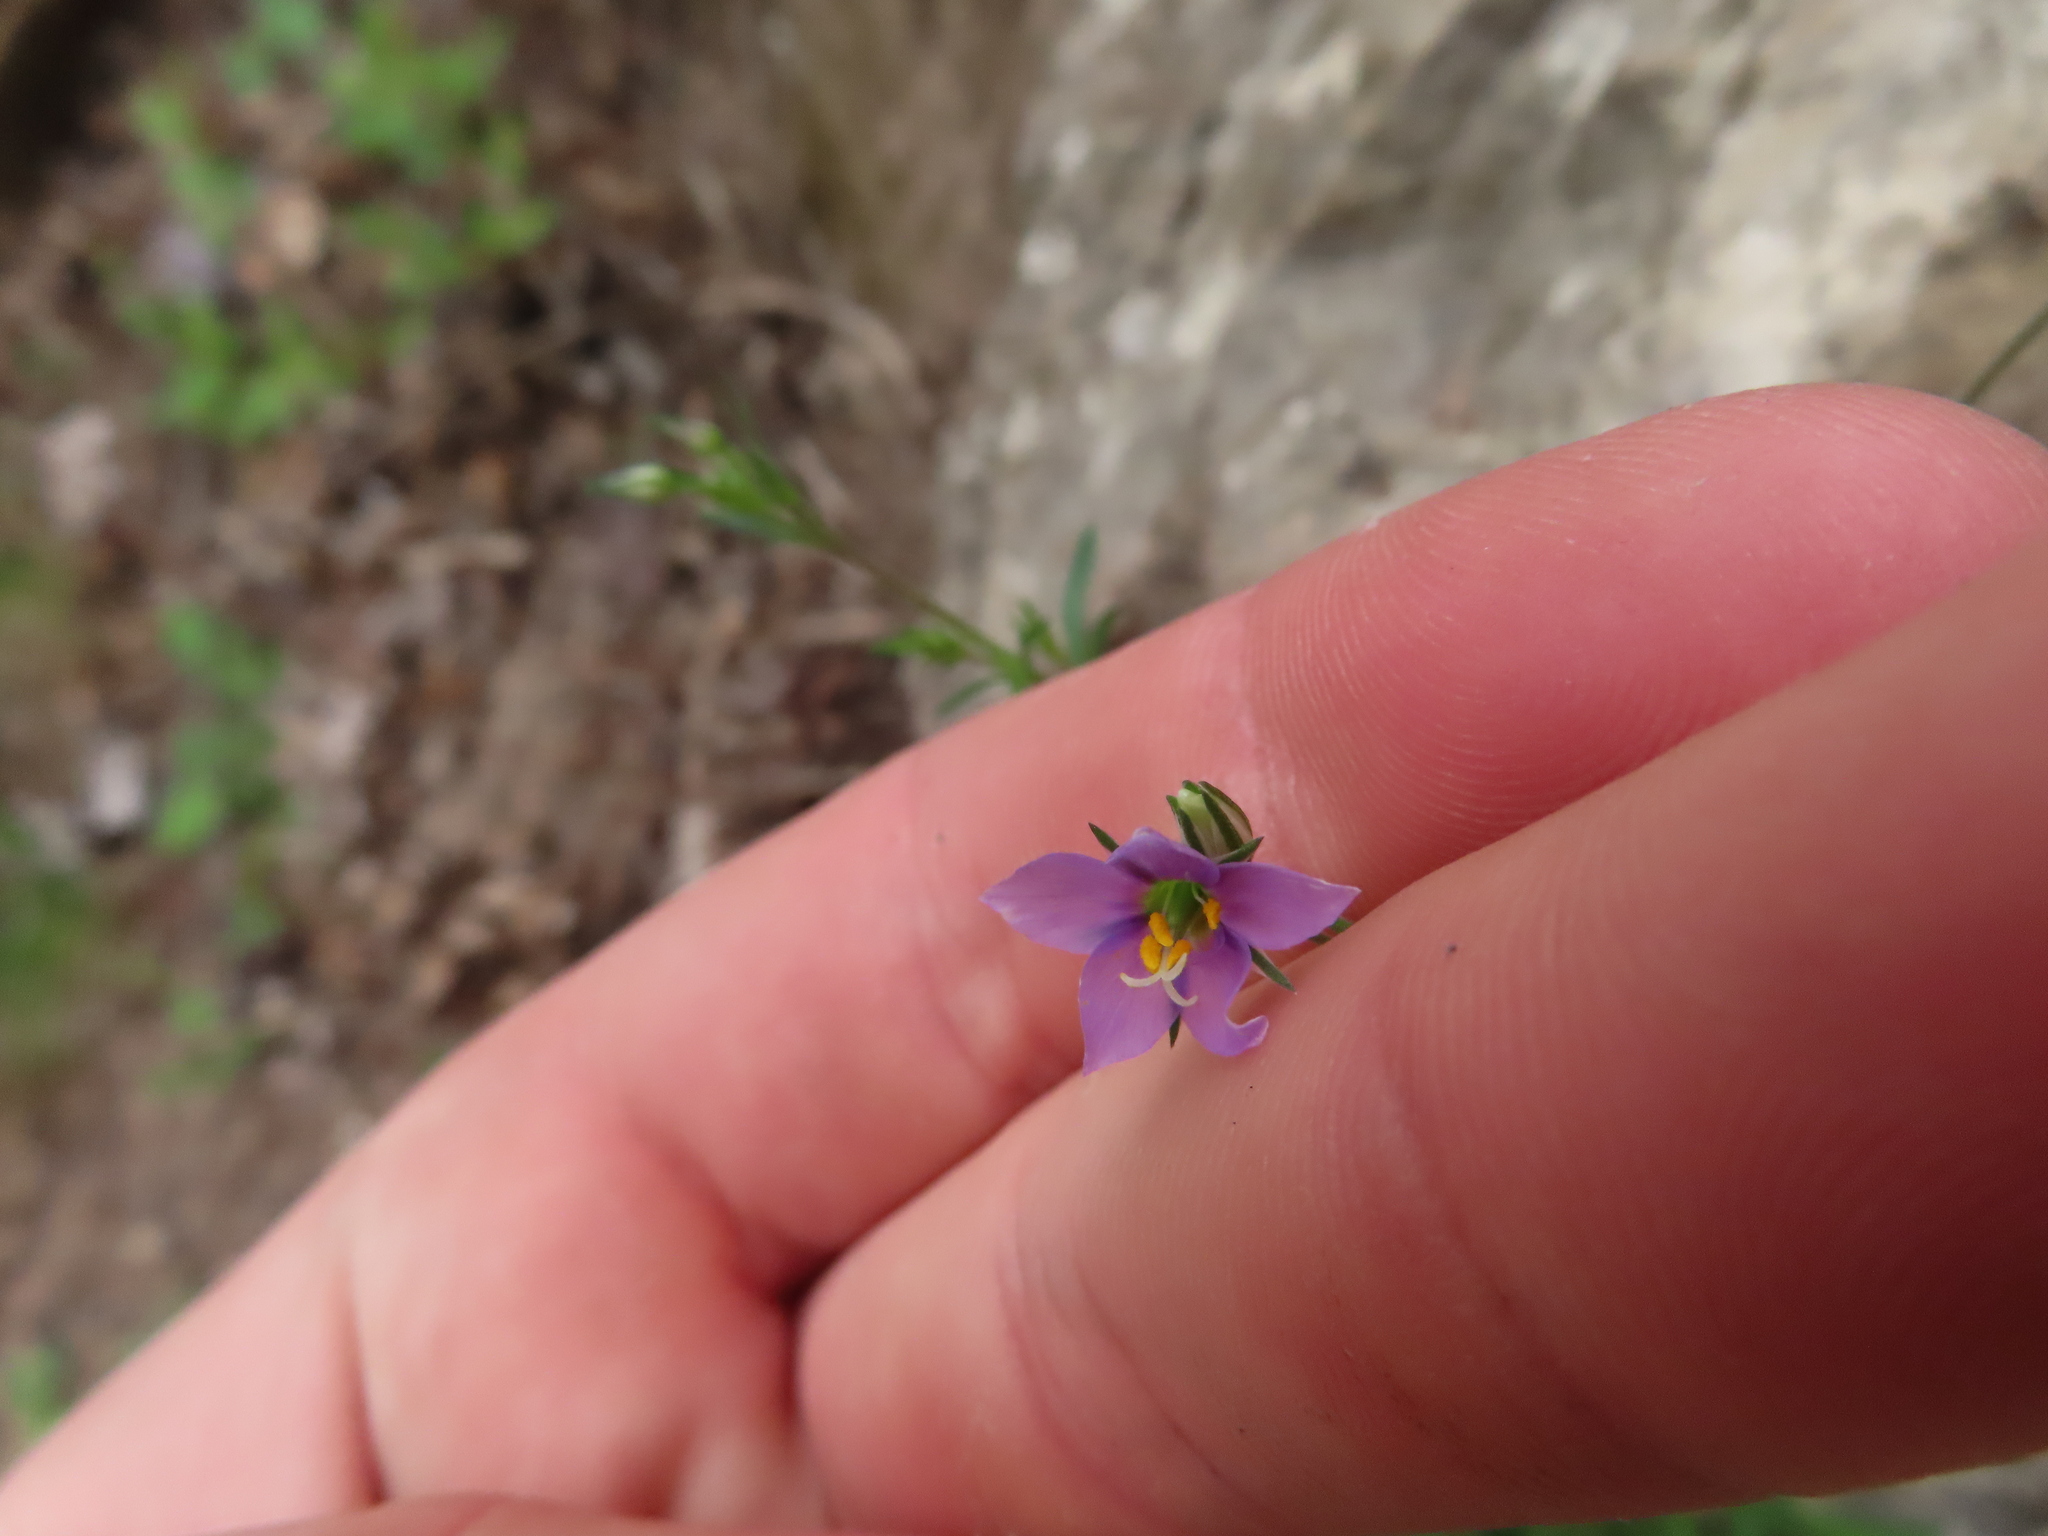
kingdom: Plantae
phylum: Tracheophyta
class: Magnoliopsida
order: Ericales
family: Polemoniaceae
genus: Giliastrum
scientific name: Giliastrum incisum
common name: Splitleaf gilia
